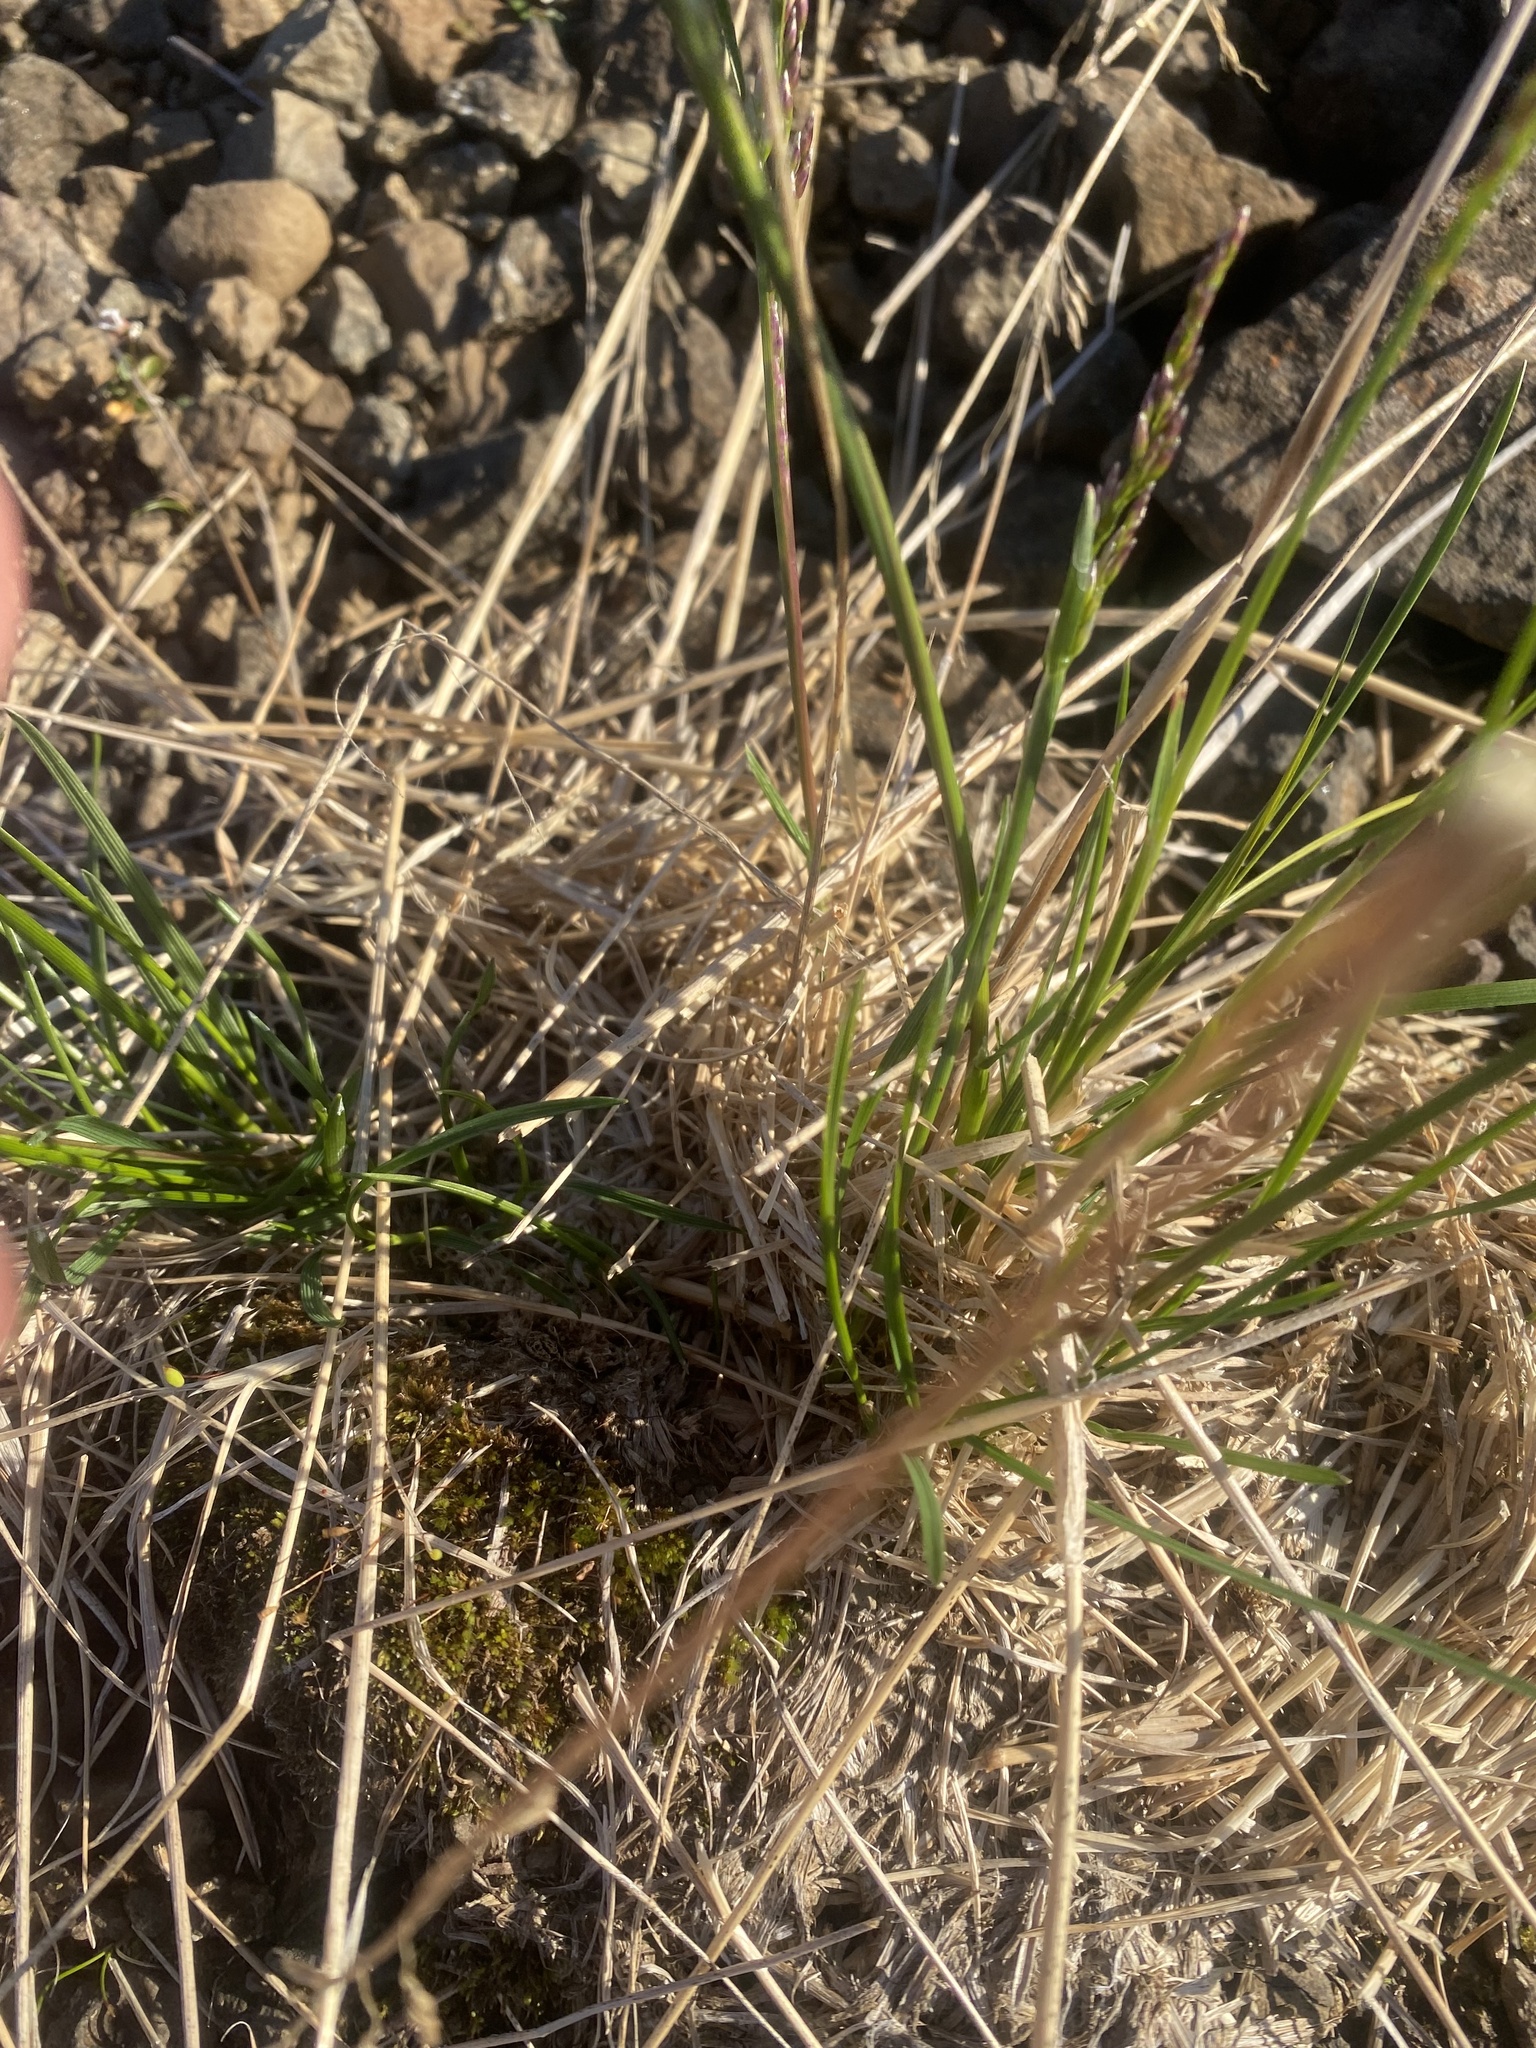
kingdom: Plantae
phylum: Tracheophyta
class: Liliopsida
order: Poales
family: Poaceae
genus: Deschampsia
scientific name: Deschampsia cespitosa
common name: Tufted hair-grass
